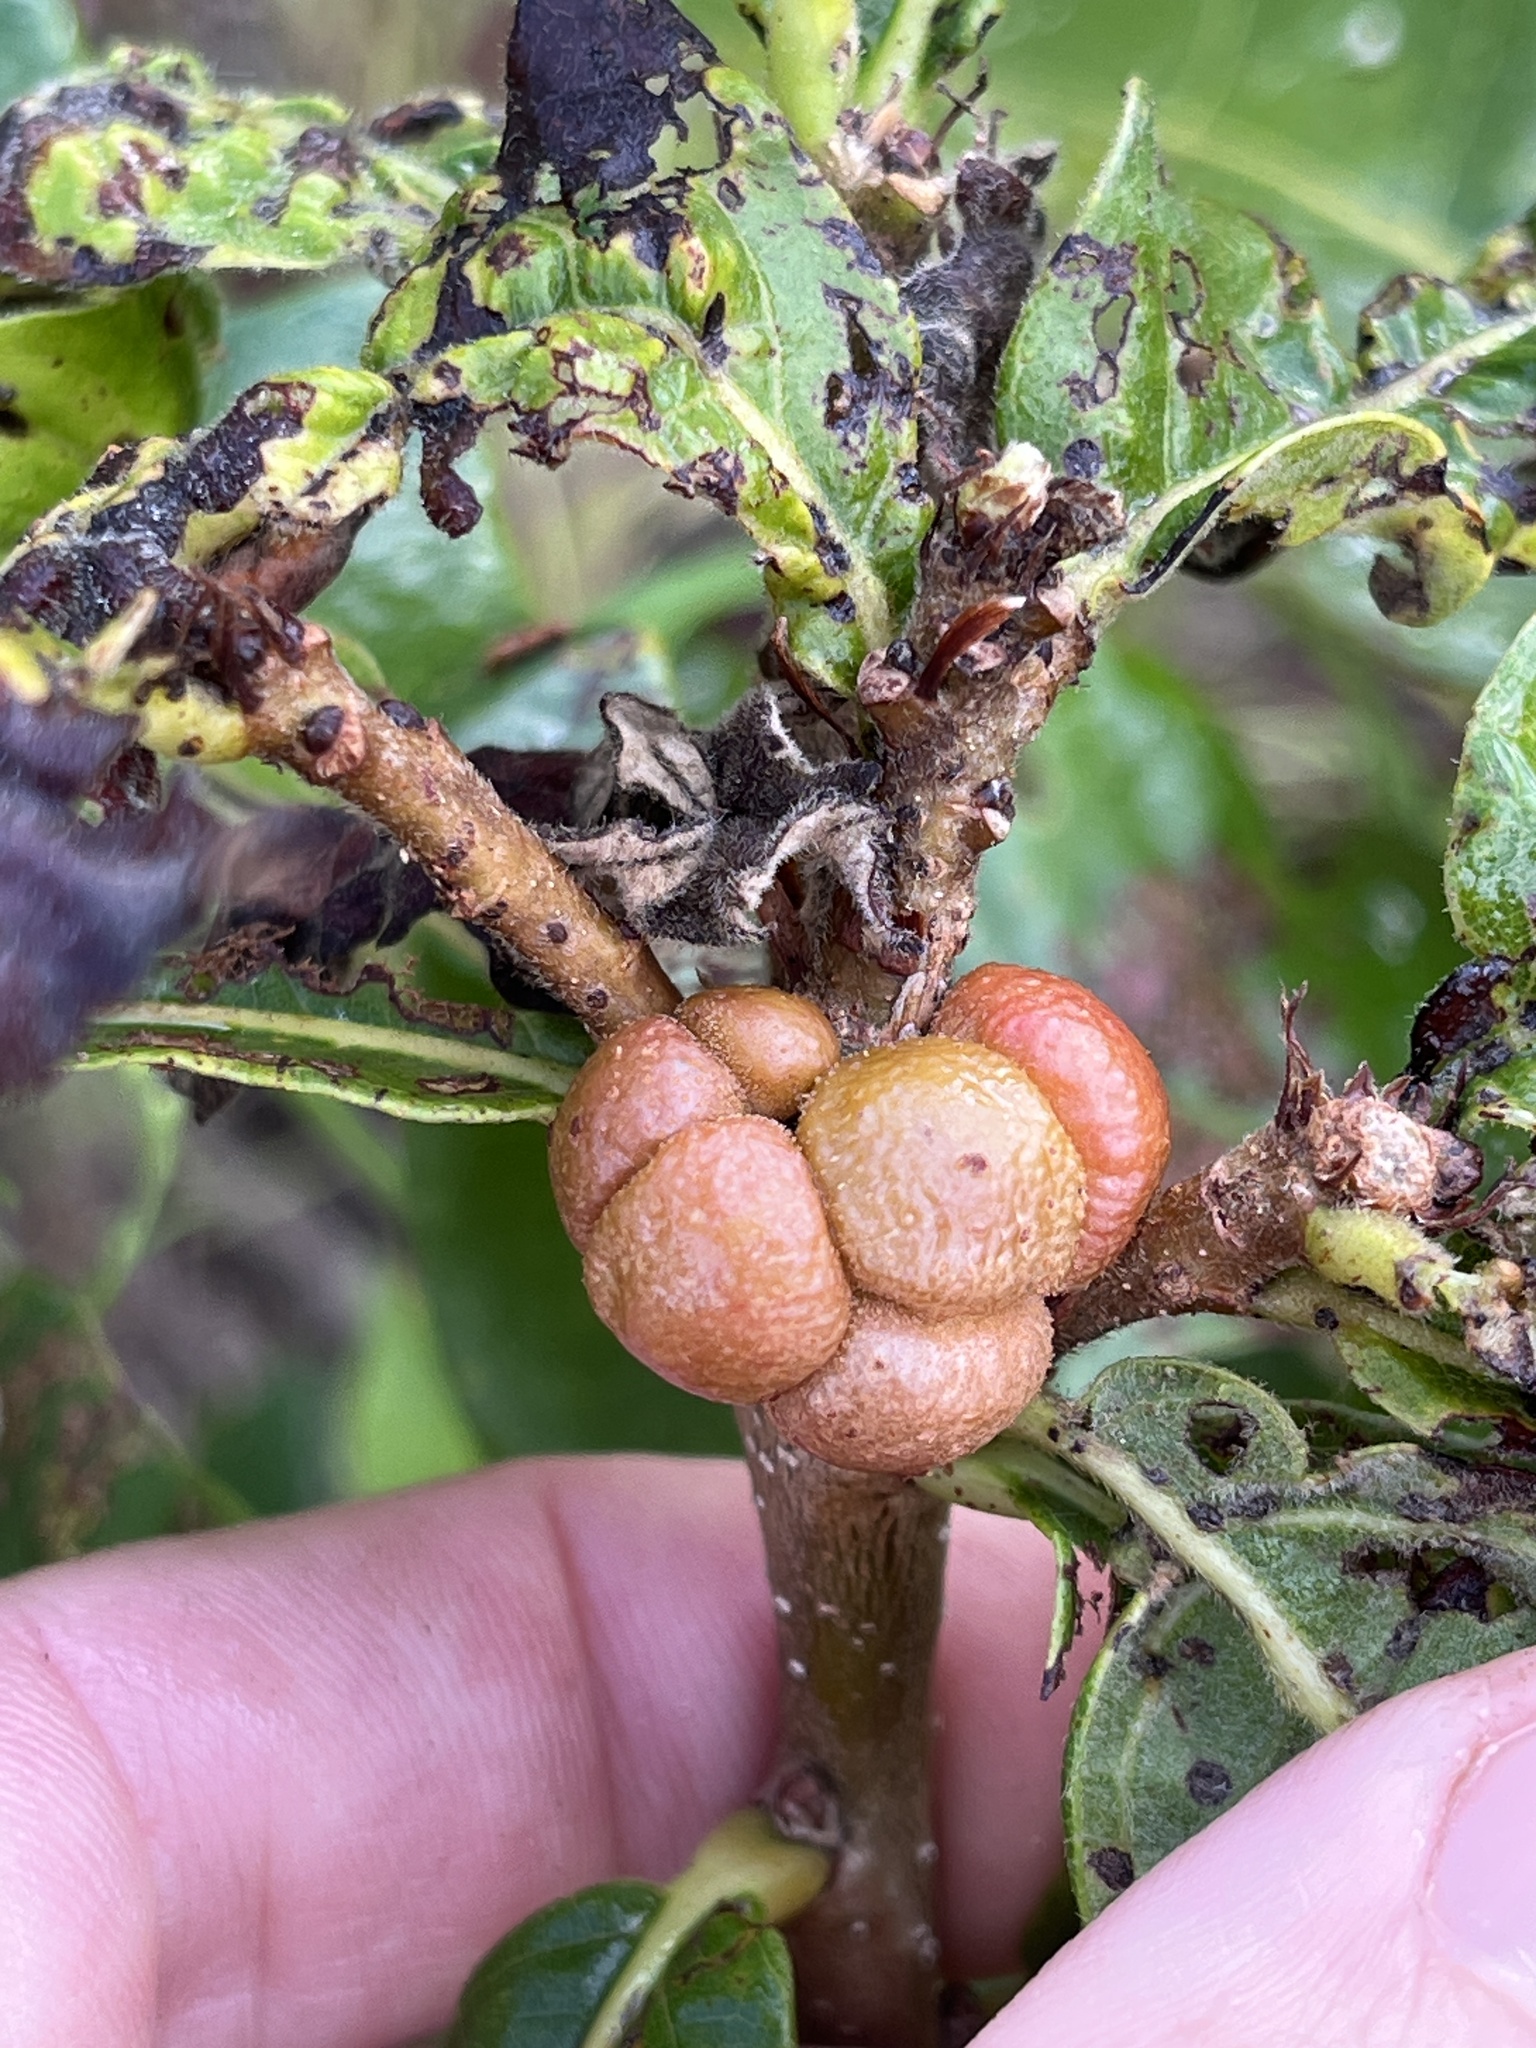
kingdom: Animalia
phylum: Arthropoda
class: Insecta
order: Hymenoptera
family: Cynipidae
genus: Andricus
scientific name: Andricus
